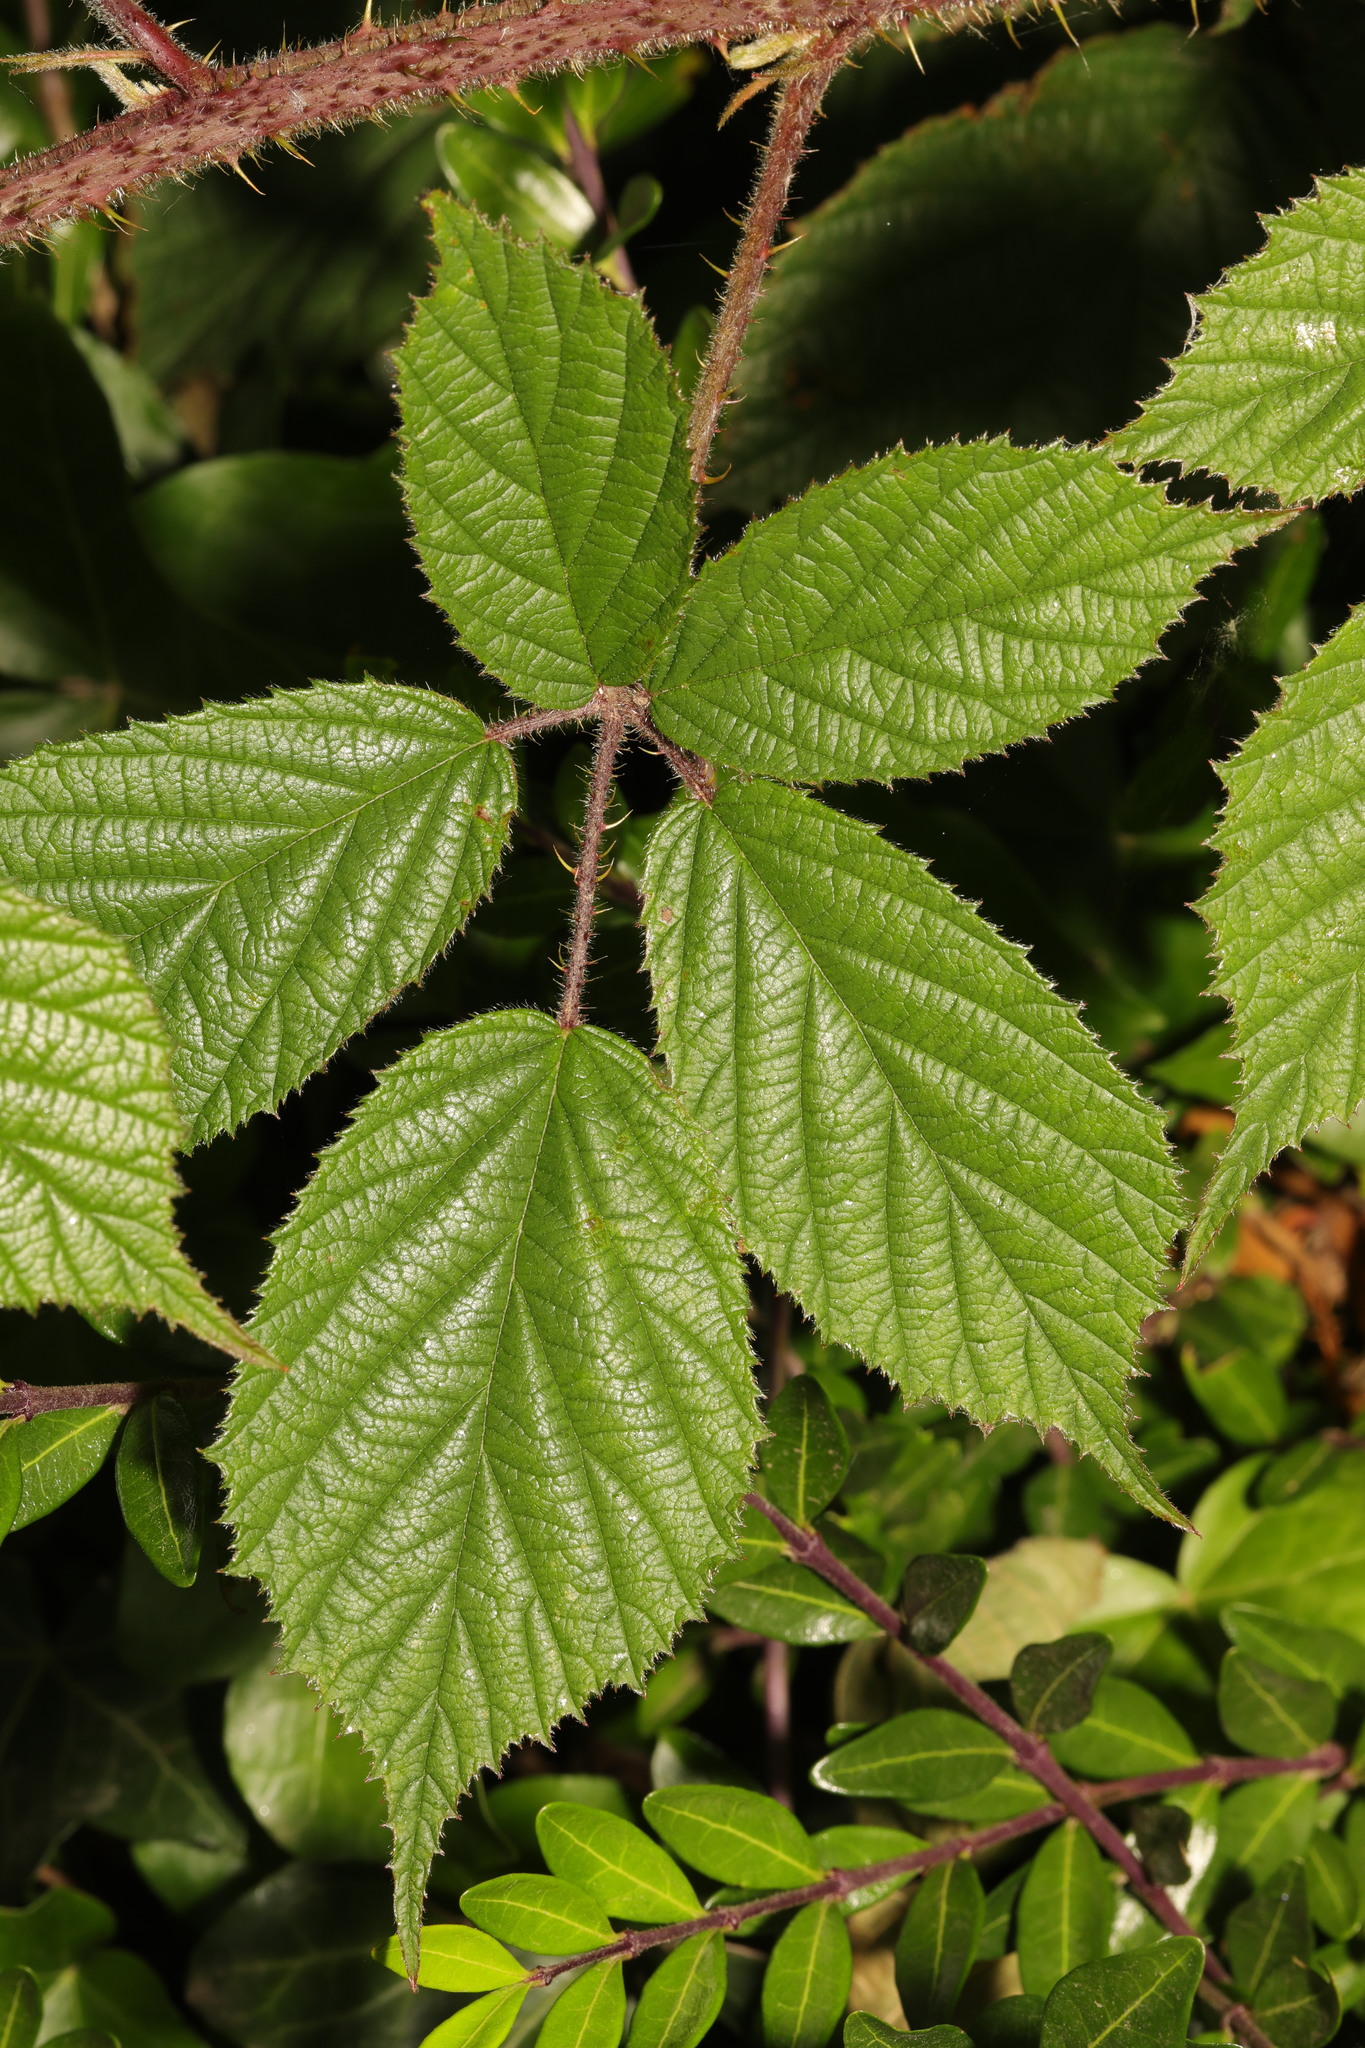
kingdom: Plantae
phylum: Tracheophyta
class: Magnoliopsida
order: Rosales
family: Rosaceae
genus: Rubus
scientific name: Rubus dasyphyllus
